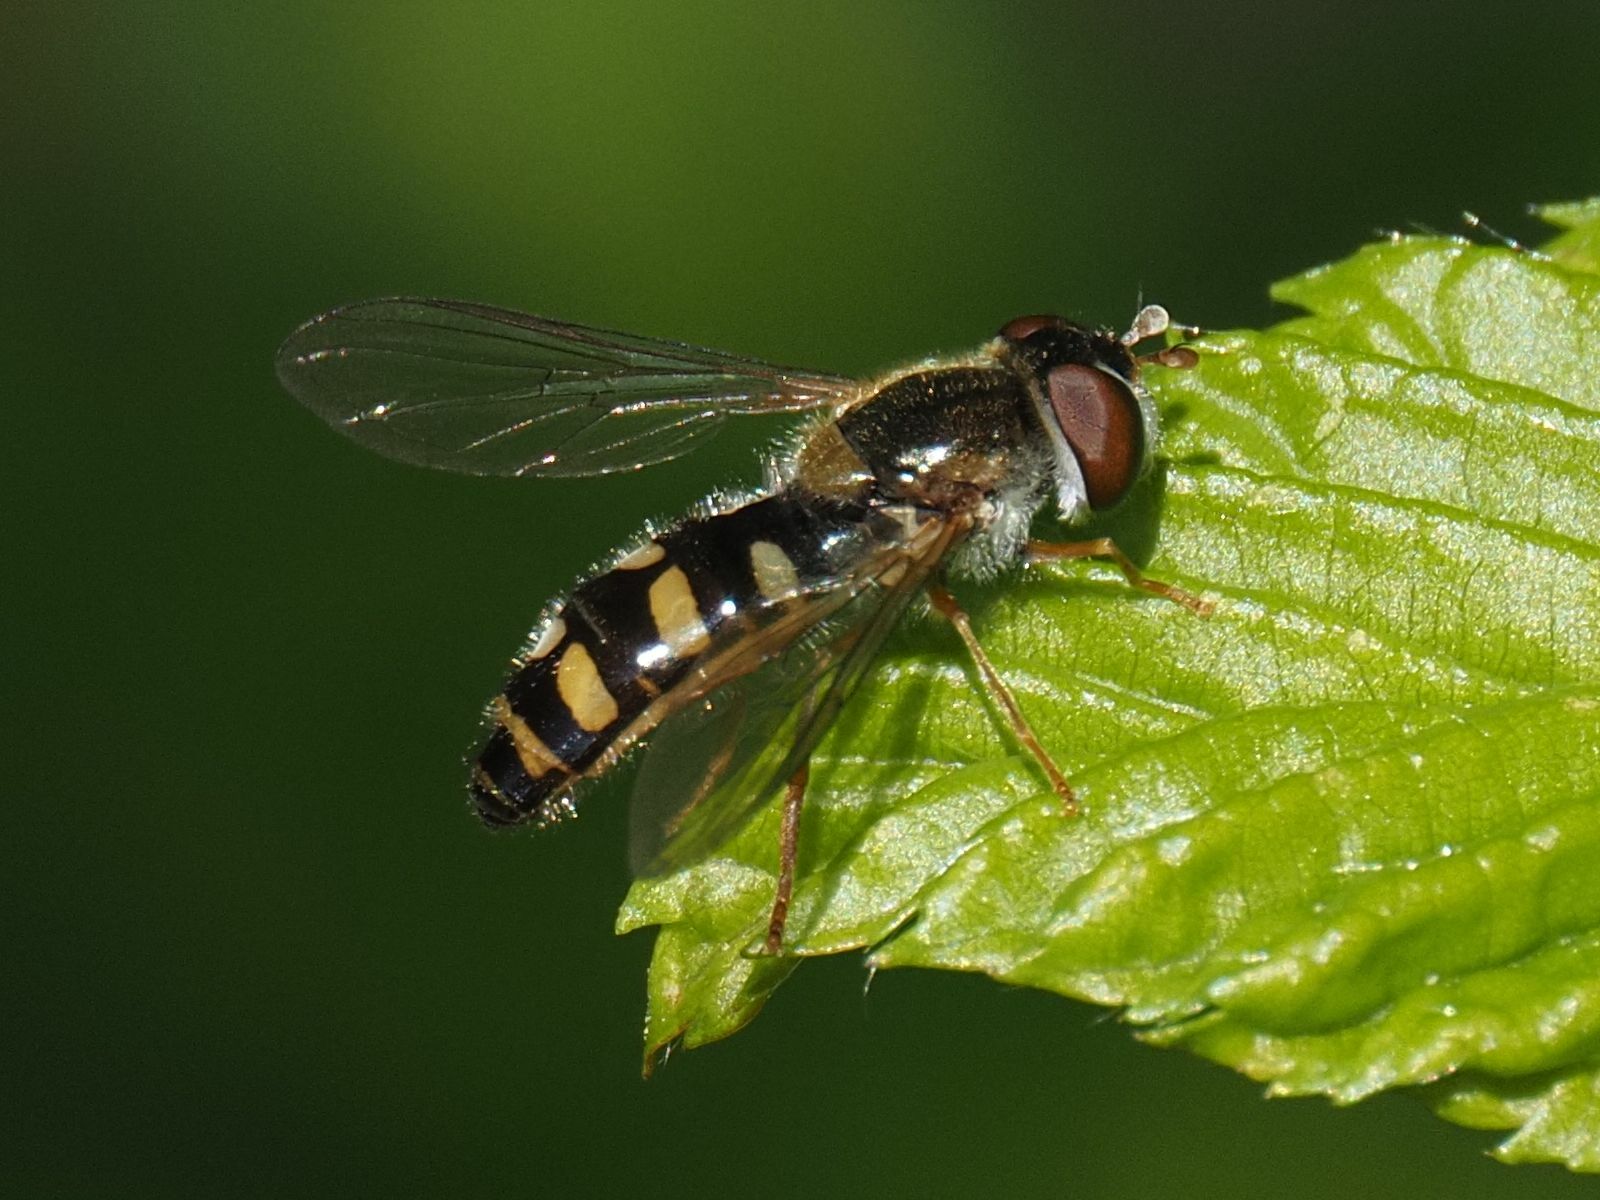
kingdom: Animalia
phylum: Arthropoda
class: Insecta
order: Diptera
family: Syrphidae
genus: Epistrophella
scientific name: Epistrophella euchromus
